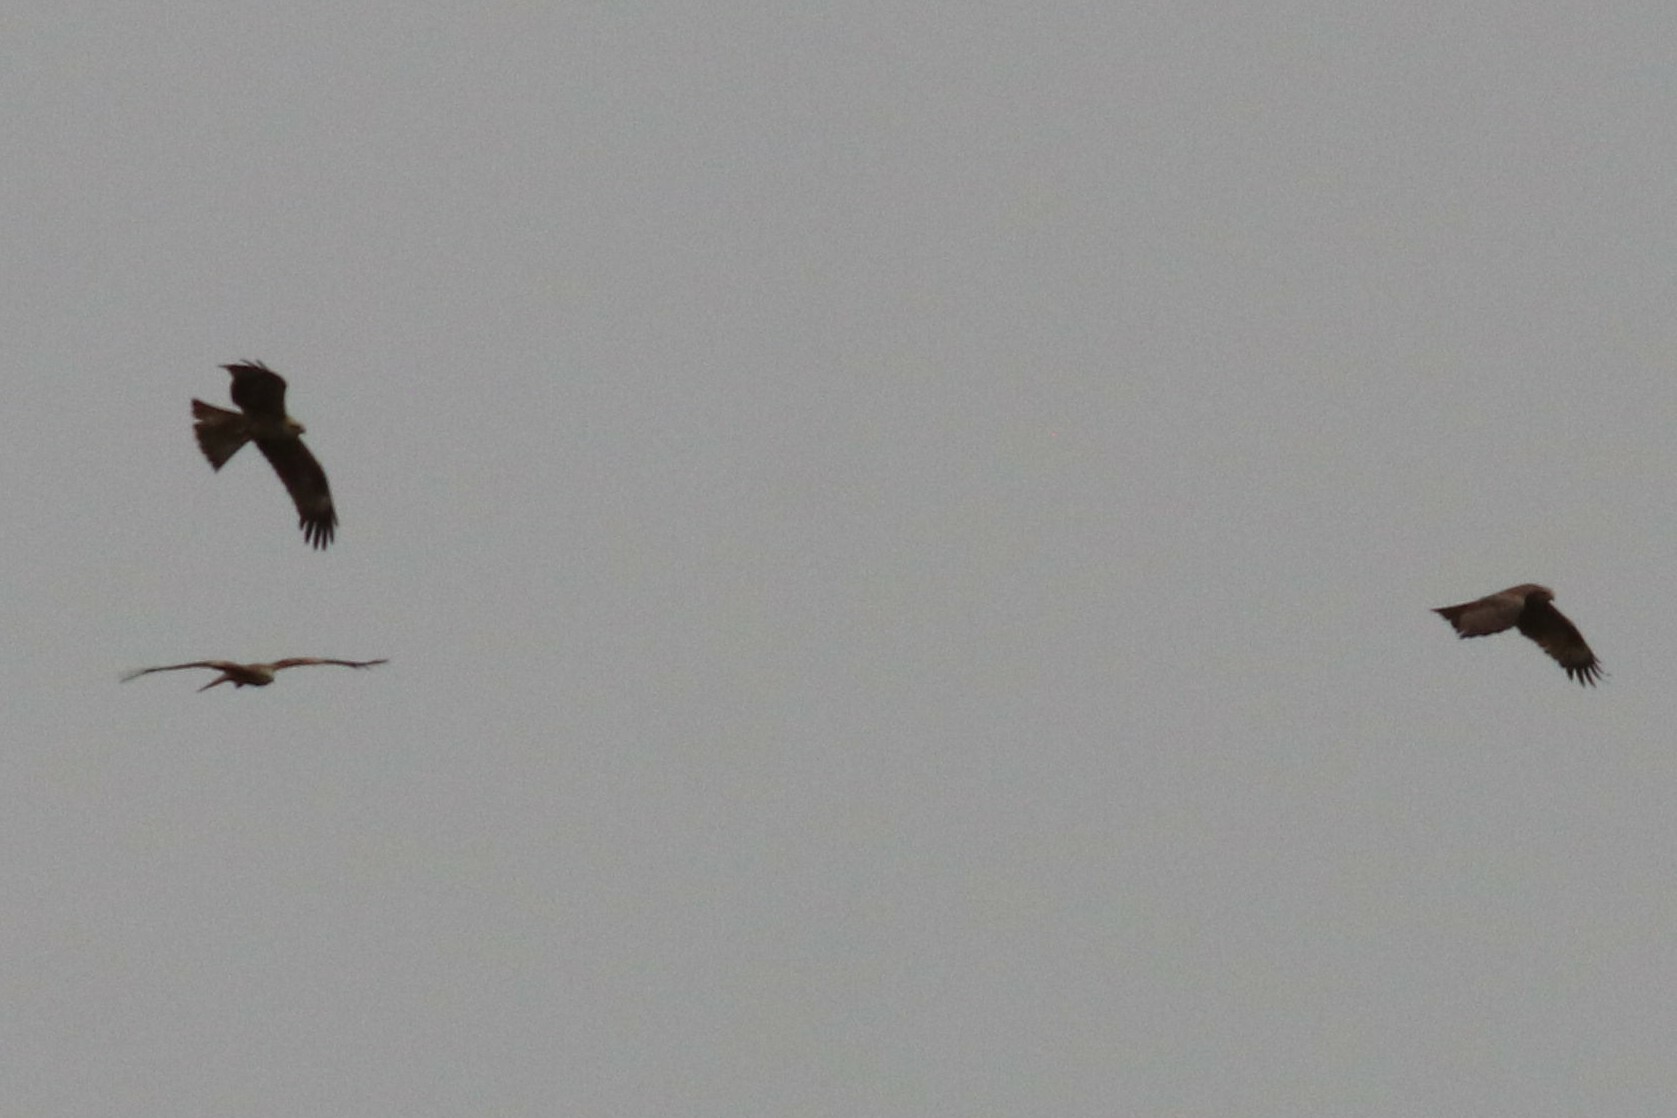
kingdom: Animalia
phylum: Chordata
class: Aves
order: Accipitriformes
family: Accipitridae
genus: Milvus
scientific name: Milvus migrans
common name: Black kite
